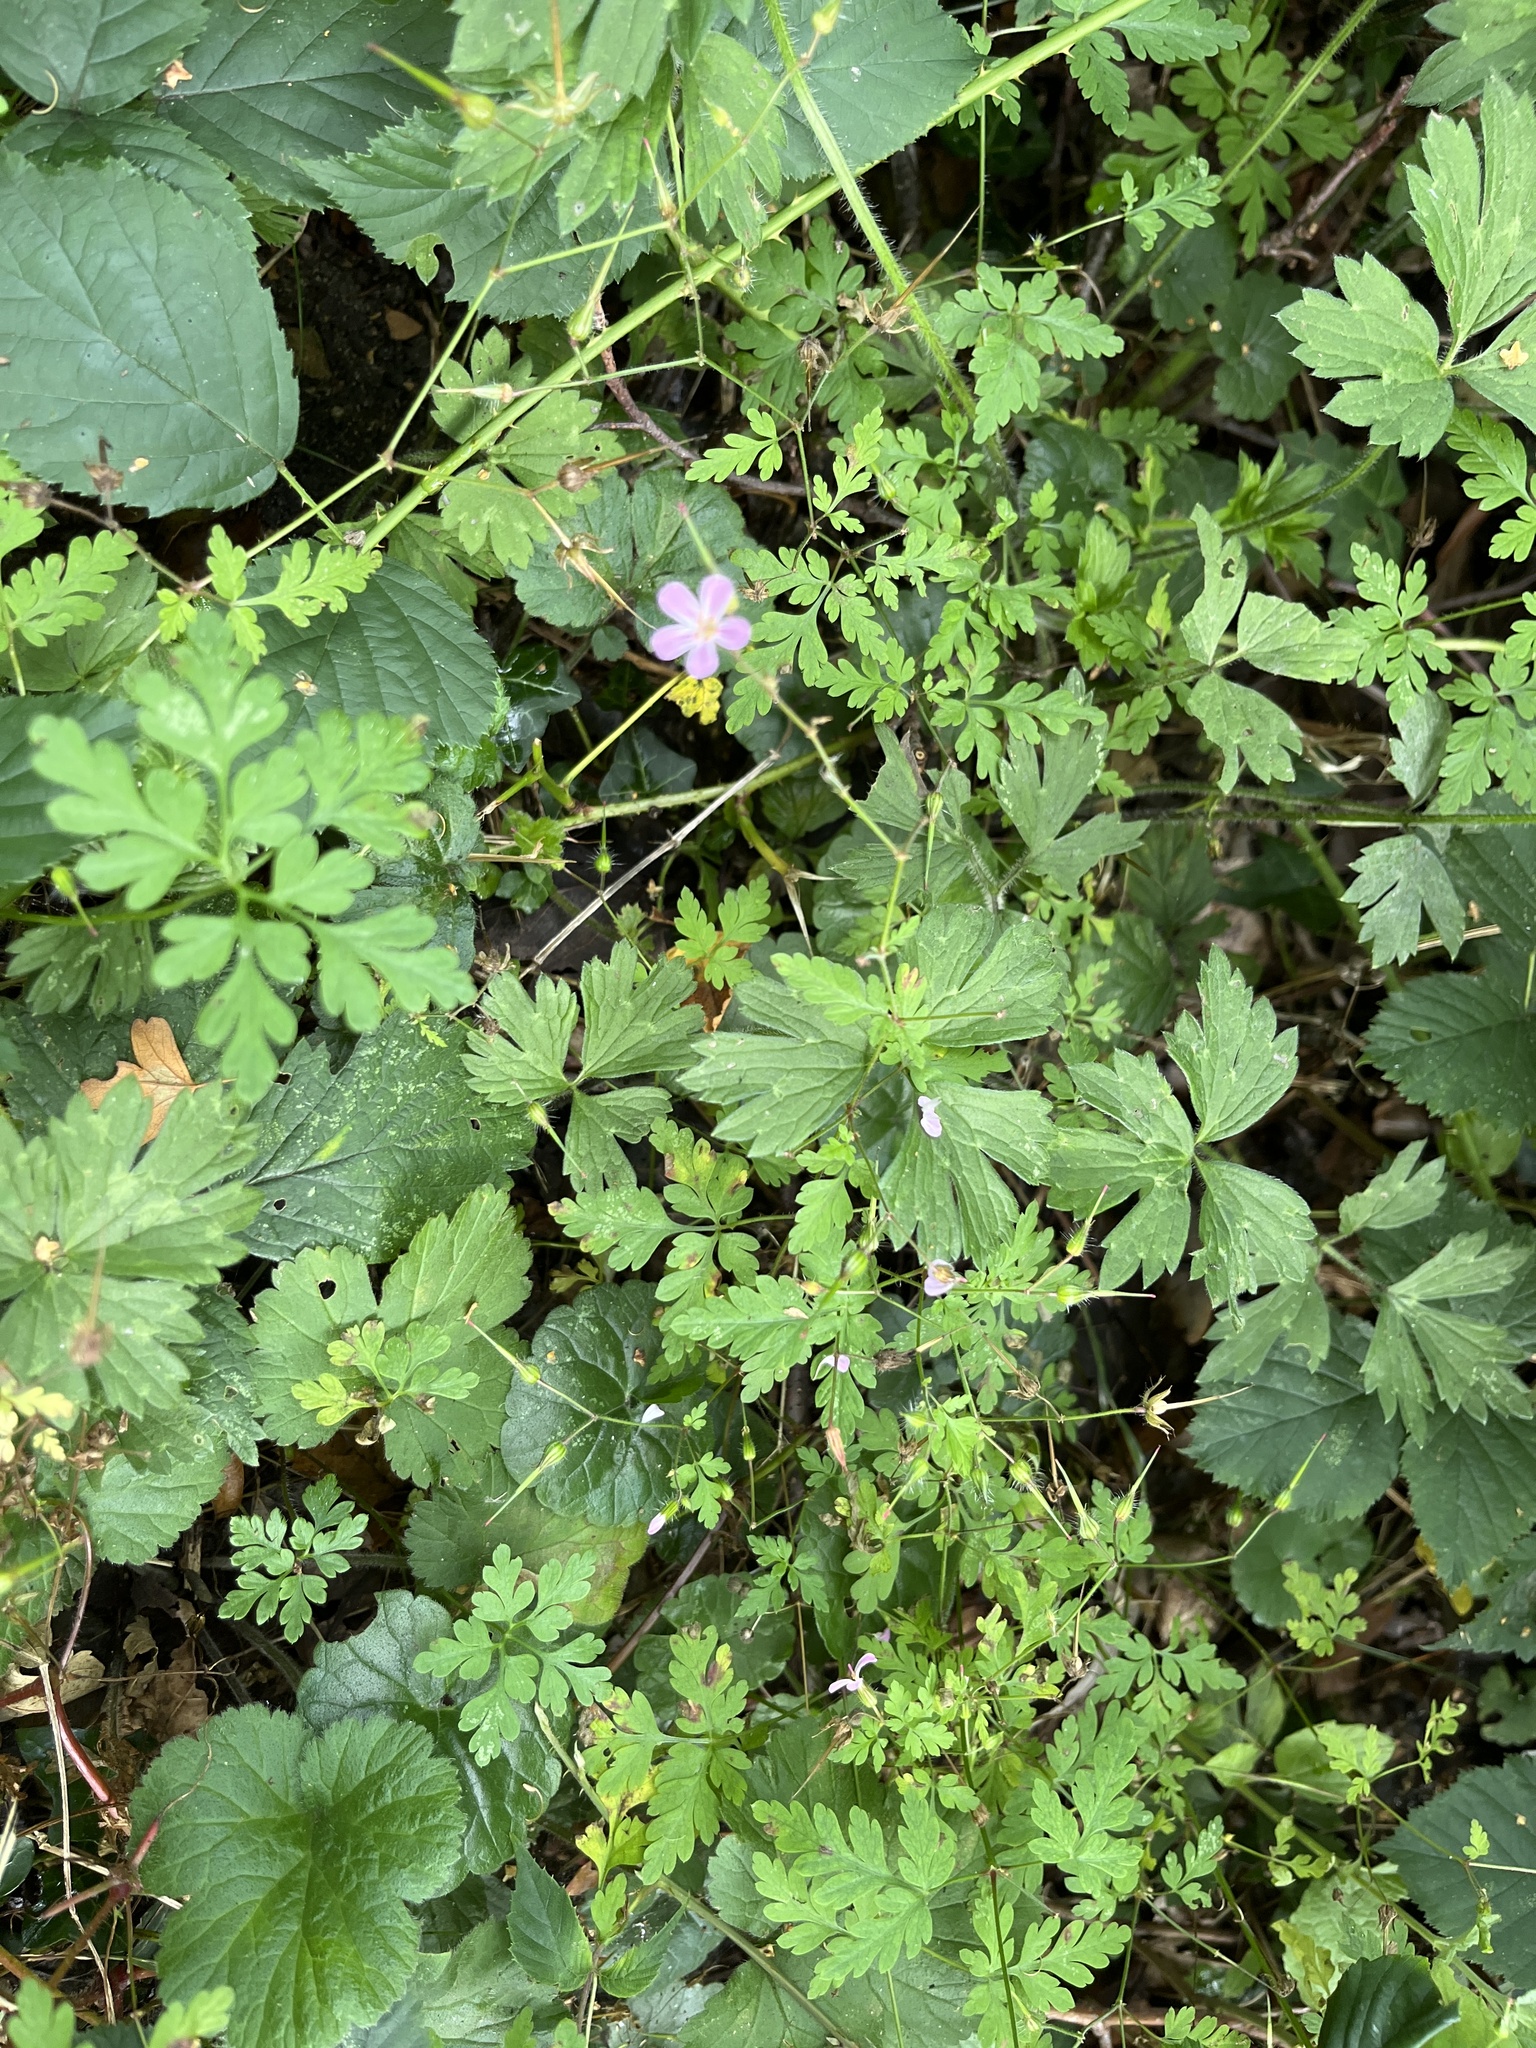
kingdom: Plantae
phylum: Tracheophyta
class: Magnoliopsida
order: Geraniales
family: Geraniaceae
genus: Geranium
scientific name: Geranium robertianum
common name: Herb-robert
